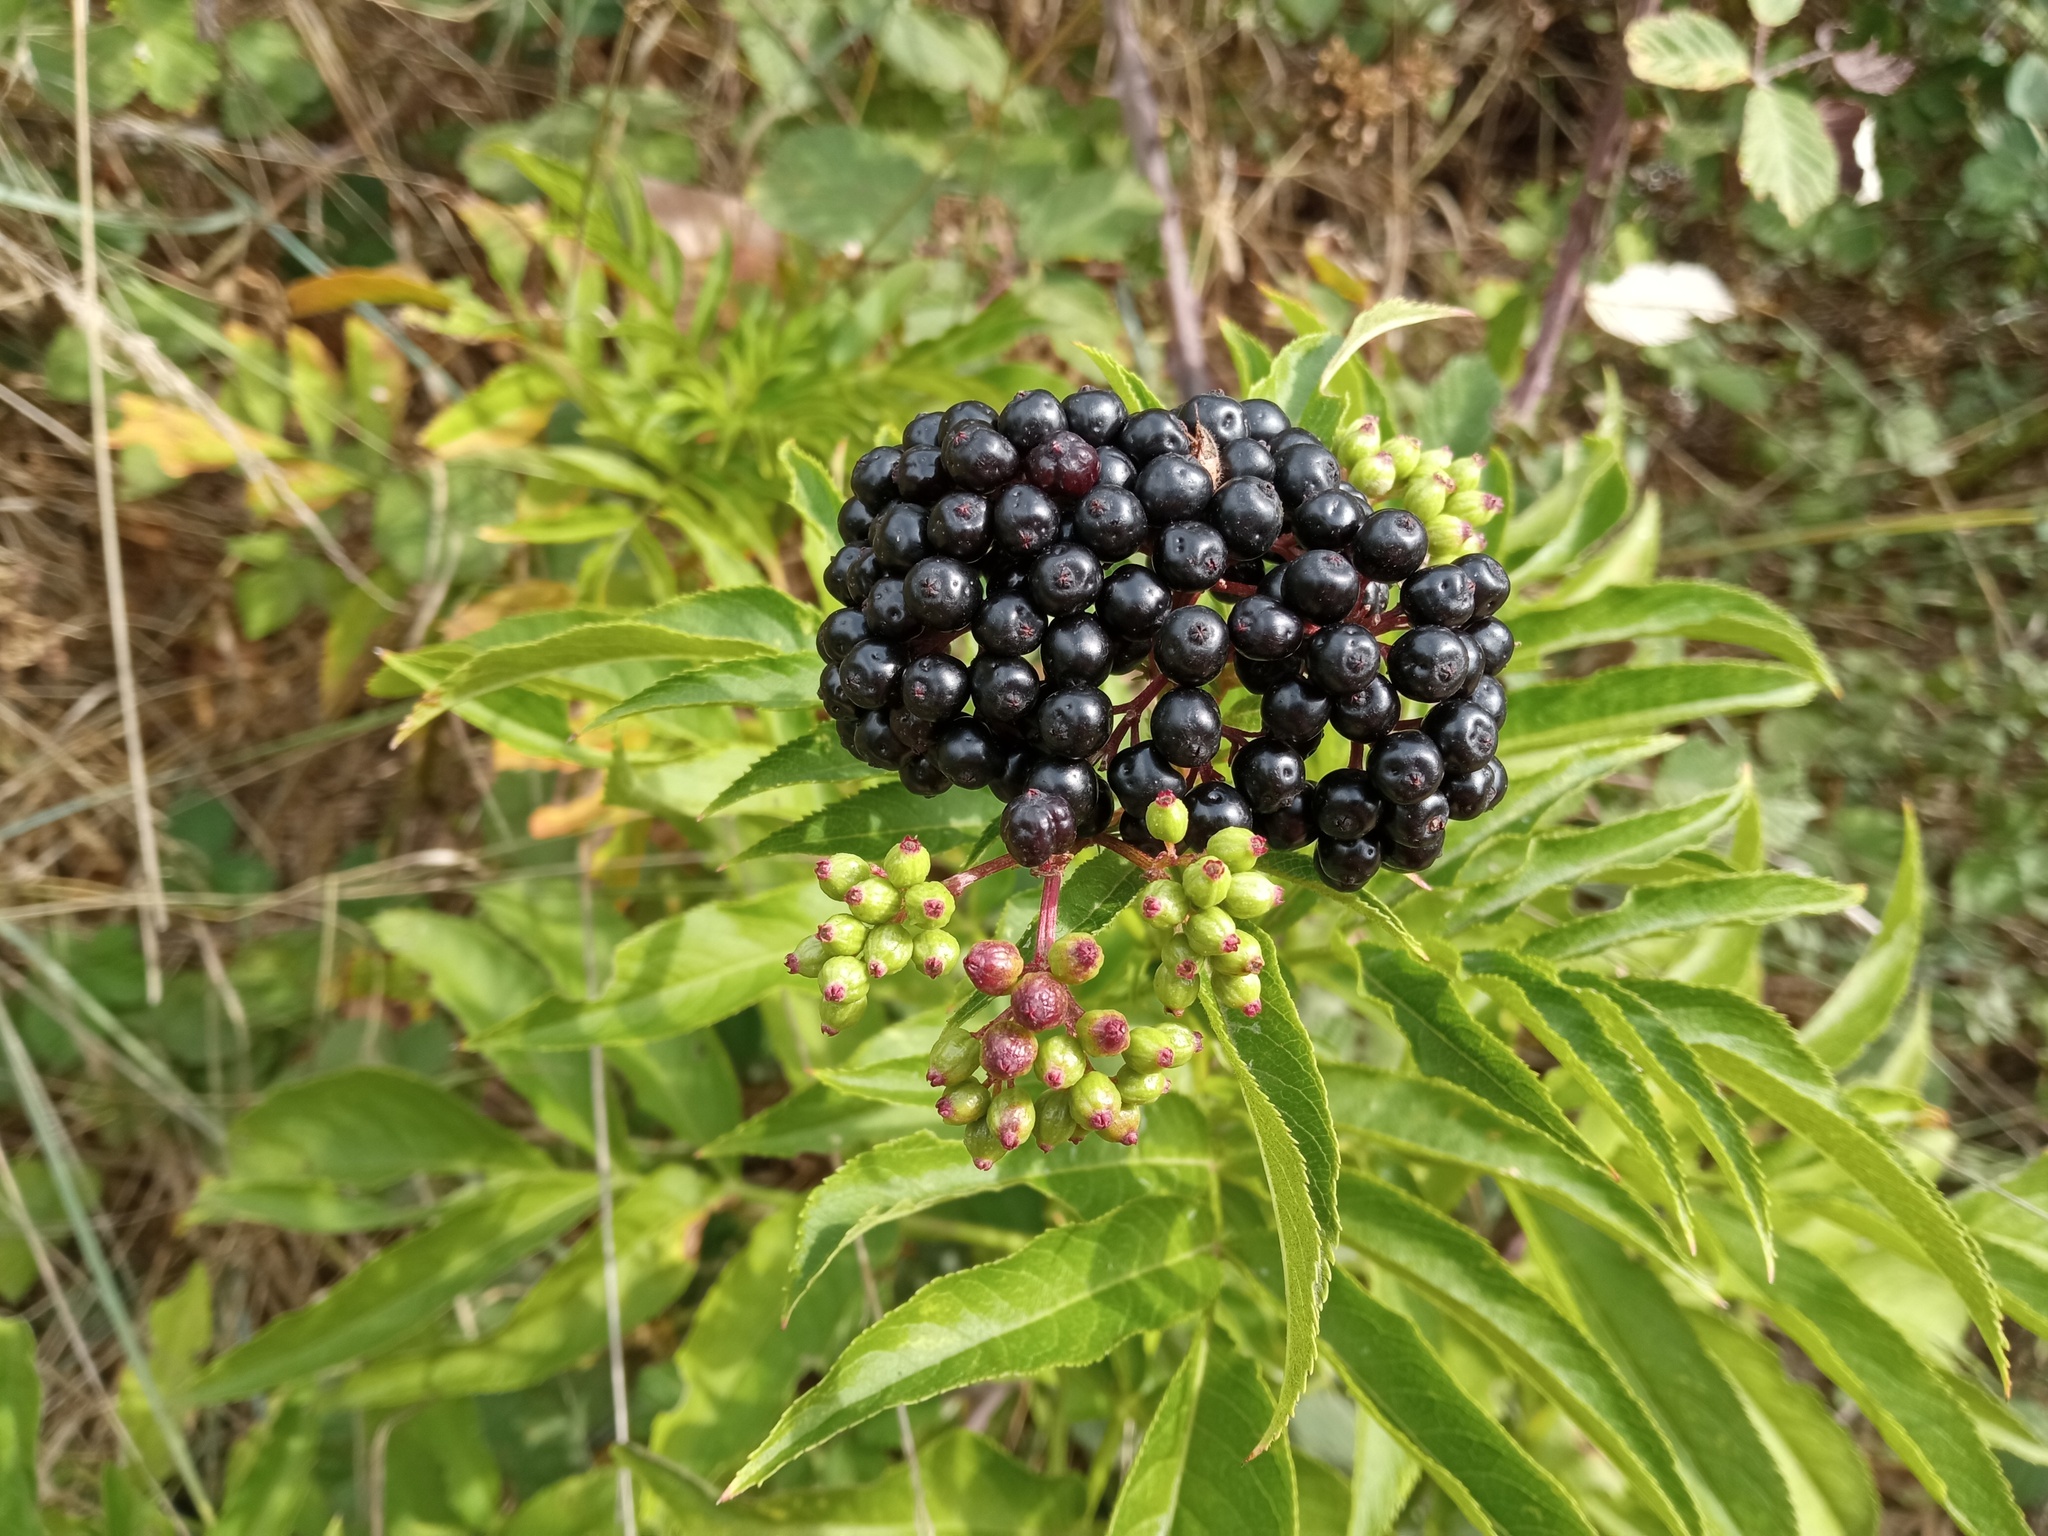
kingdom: Plantae
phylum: Tracheophyta
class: Magnoliopsida
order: Dipsacales
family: Viburnaceae
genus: Sambucus
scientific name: Sambucus ebulus
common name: Dwarf elder
